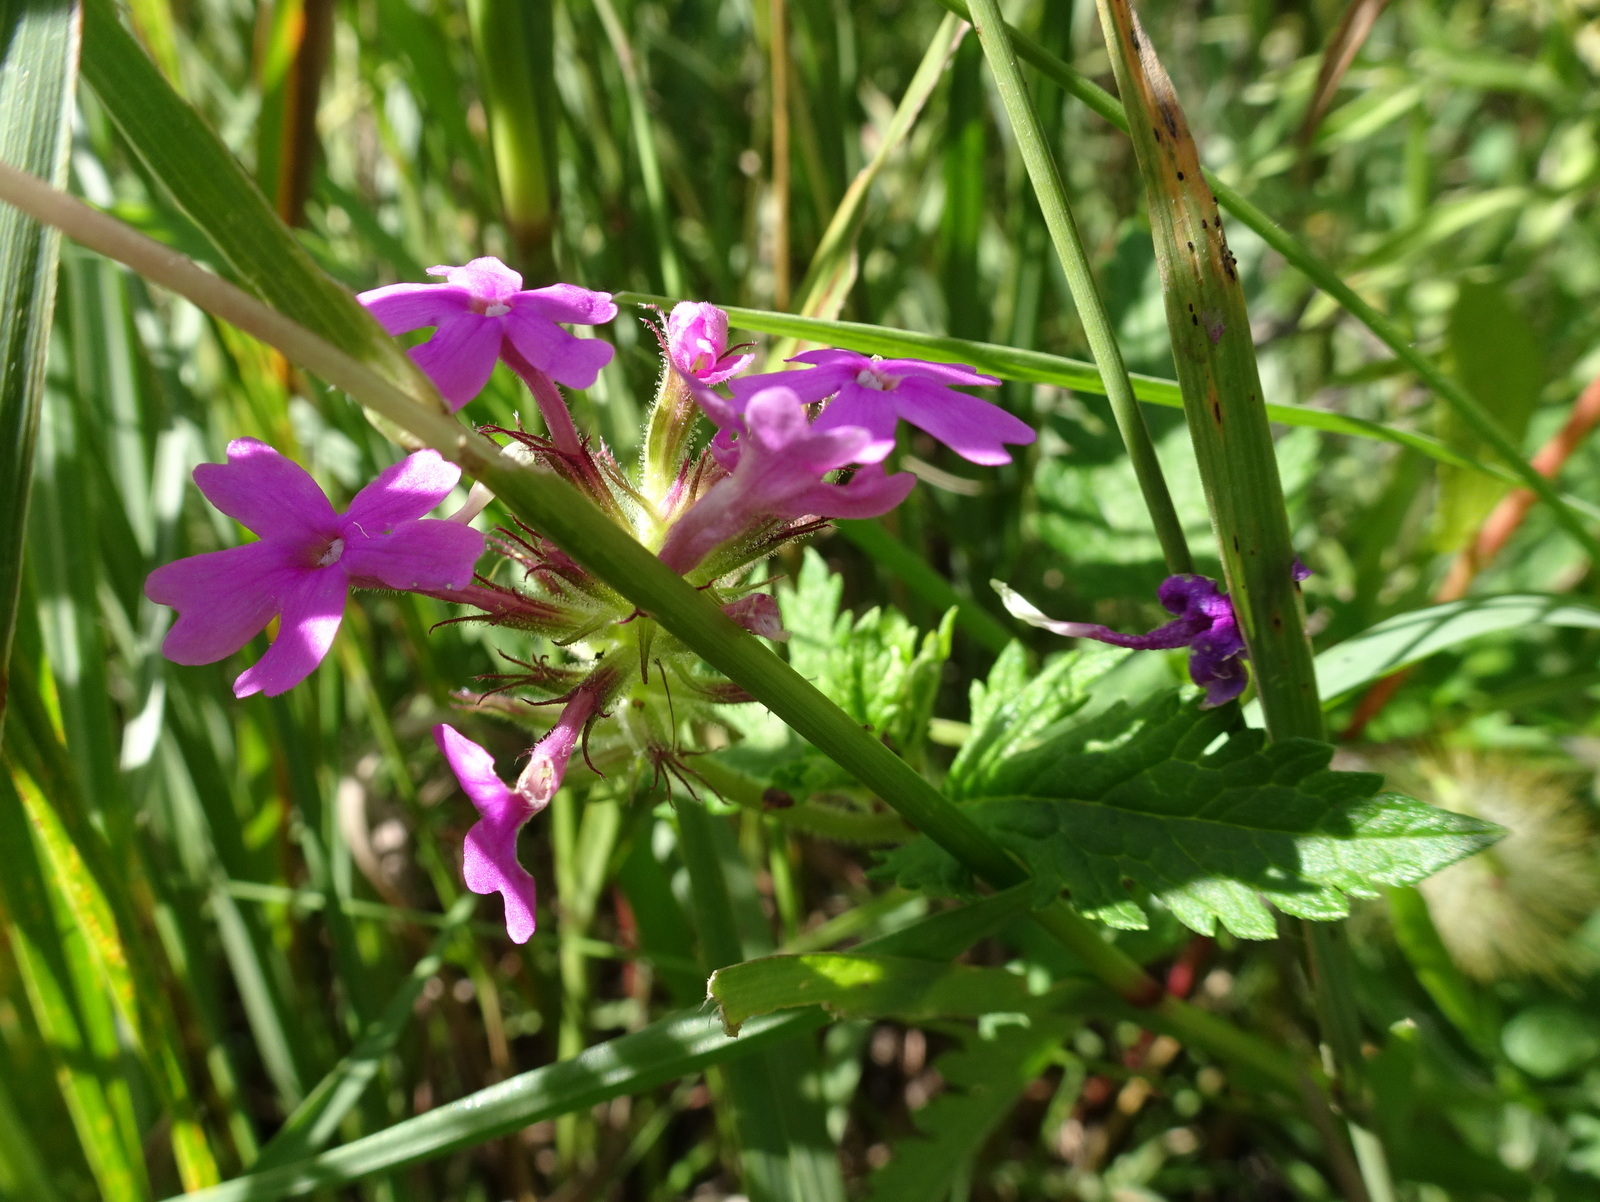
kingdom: Plantae
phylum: Tracheophyta
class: Magnoliopsida
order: Lamiales
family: Verbenaceae
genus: Verbena
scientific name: Verbena canadensis
